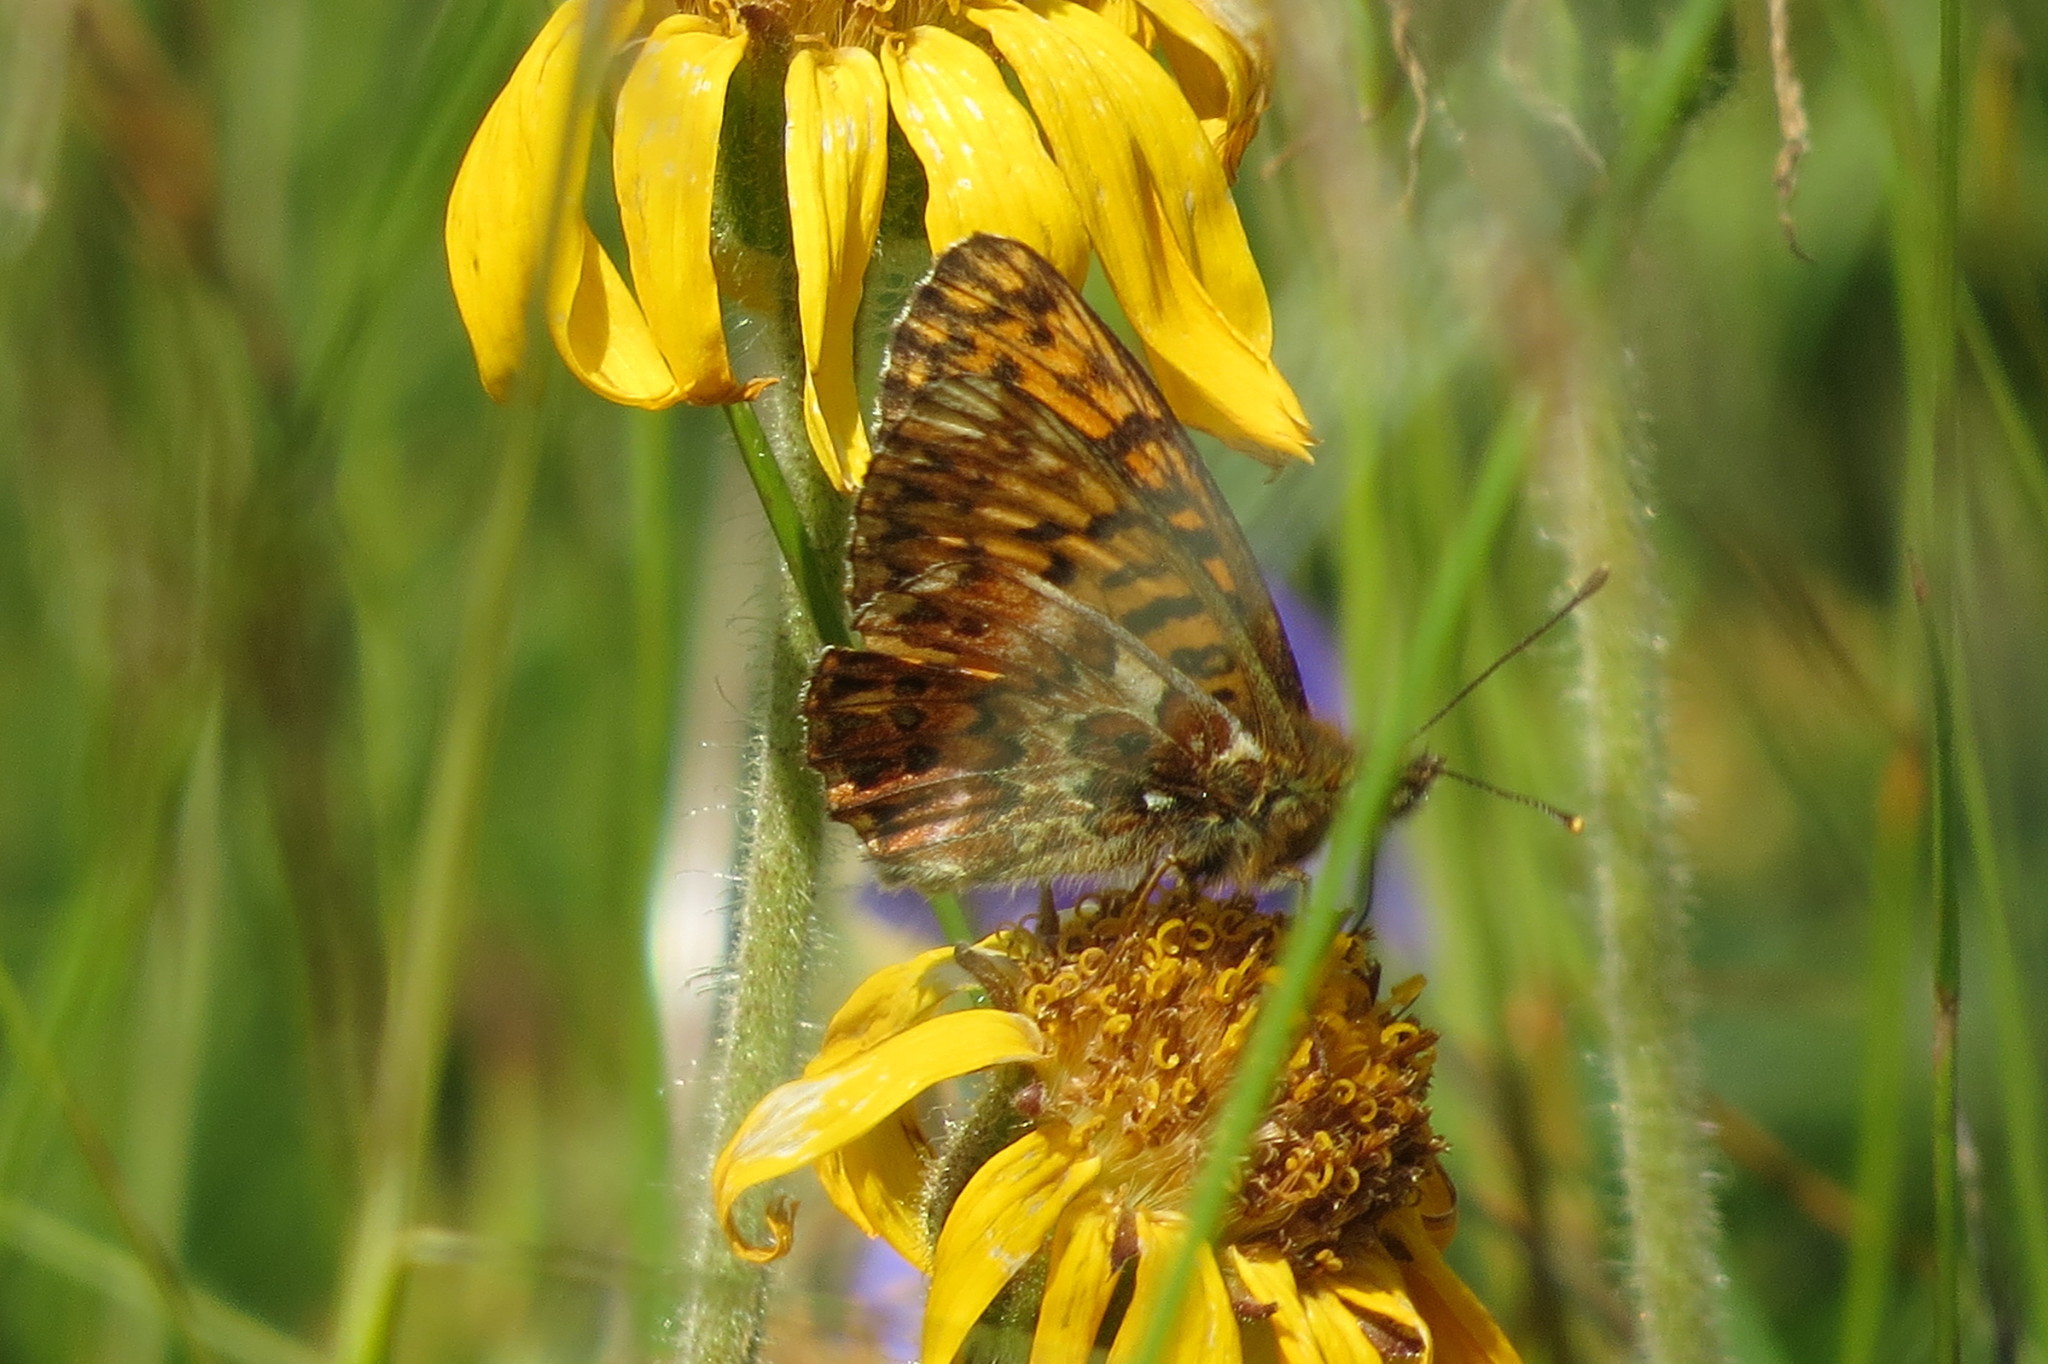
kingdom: Animalia
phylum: Arthropoda
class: Insecta
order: Lepidoptera
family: Nymphalidae
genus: Boloria
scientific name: Boloria titania
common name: Titania's fritillary
